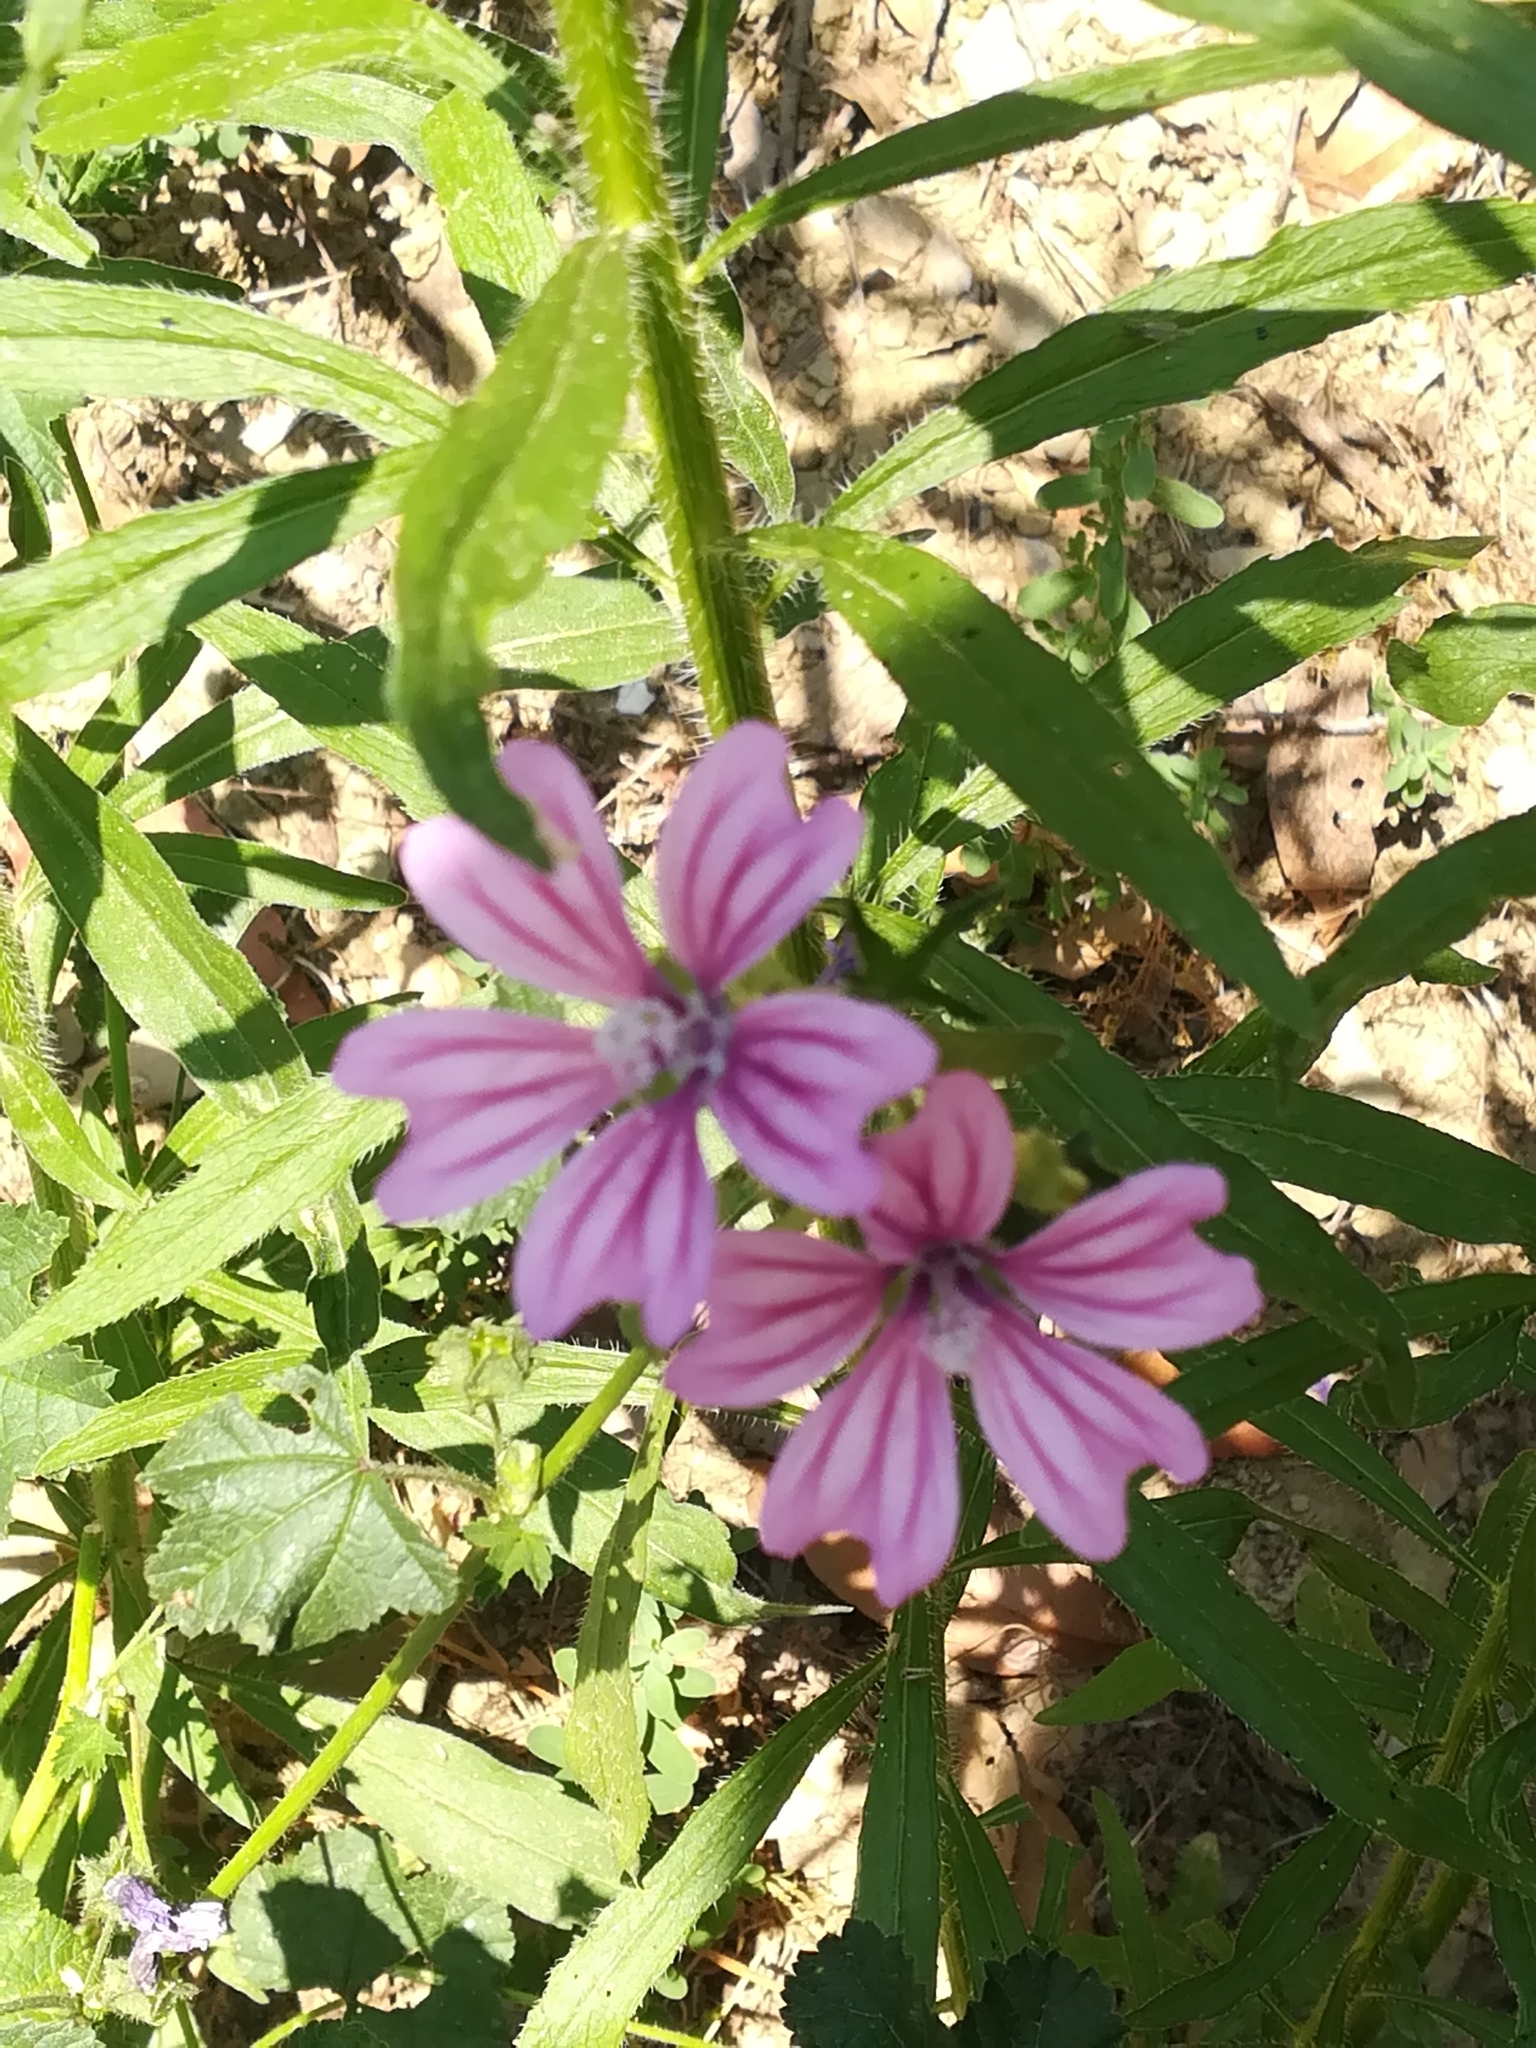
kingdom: Plantae
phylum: Tracheophyta
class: Magnoliopsida
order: Malvales
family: Malvaceae
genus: Malva
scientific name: Malva sylvestris
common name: Common mallow
